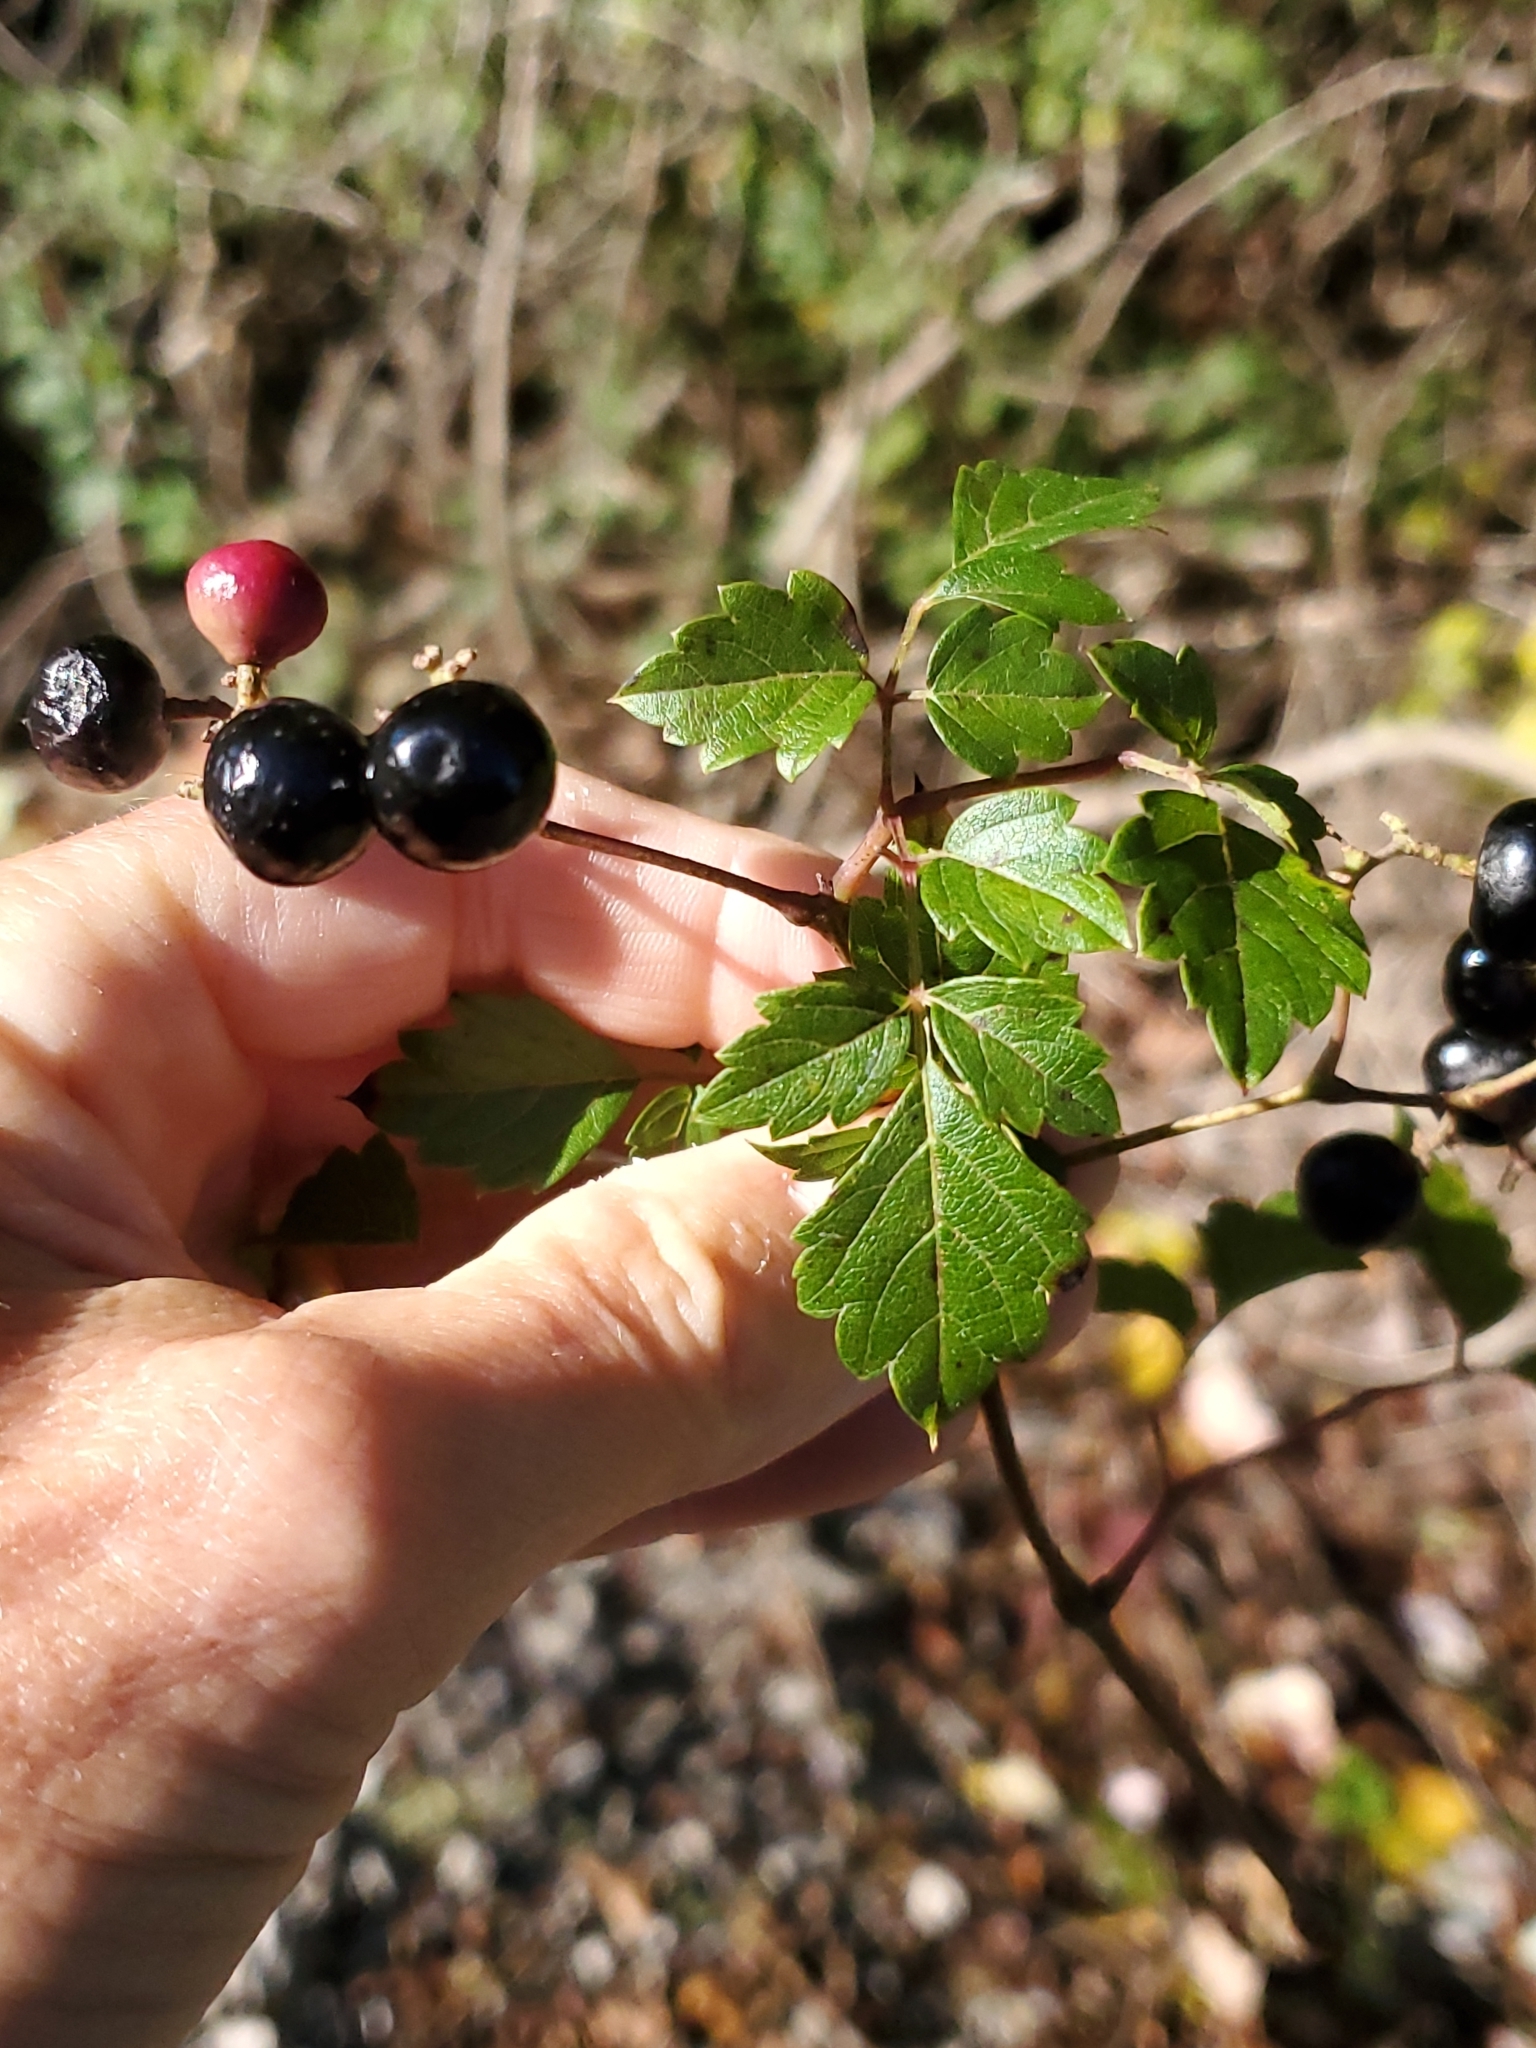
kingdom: Plantae
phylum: Tracheophyta
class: Magnoliopsida
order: Vitales
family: Vitaceae
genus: Nekemias
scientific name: Nekemias arborea
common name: Peppervine
